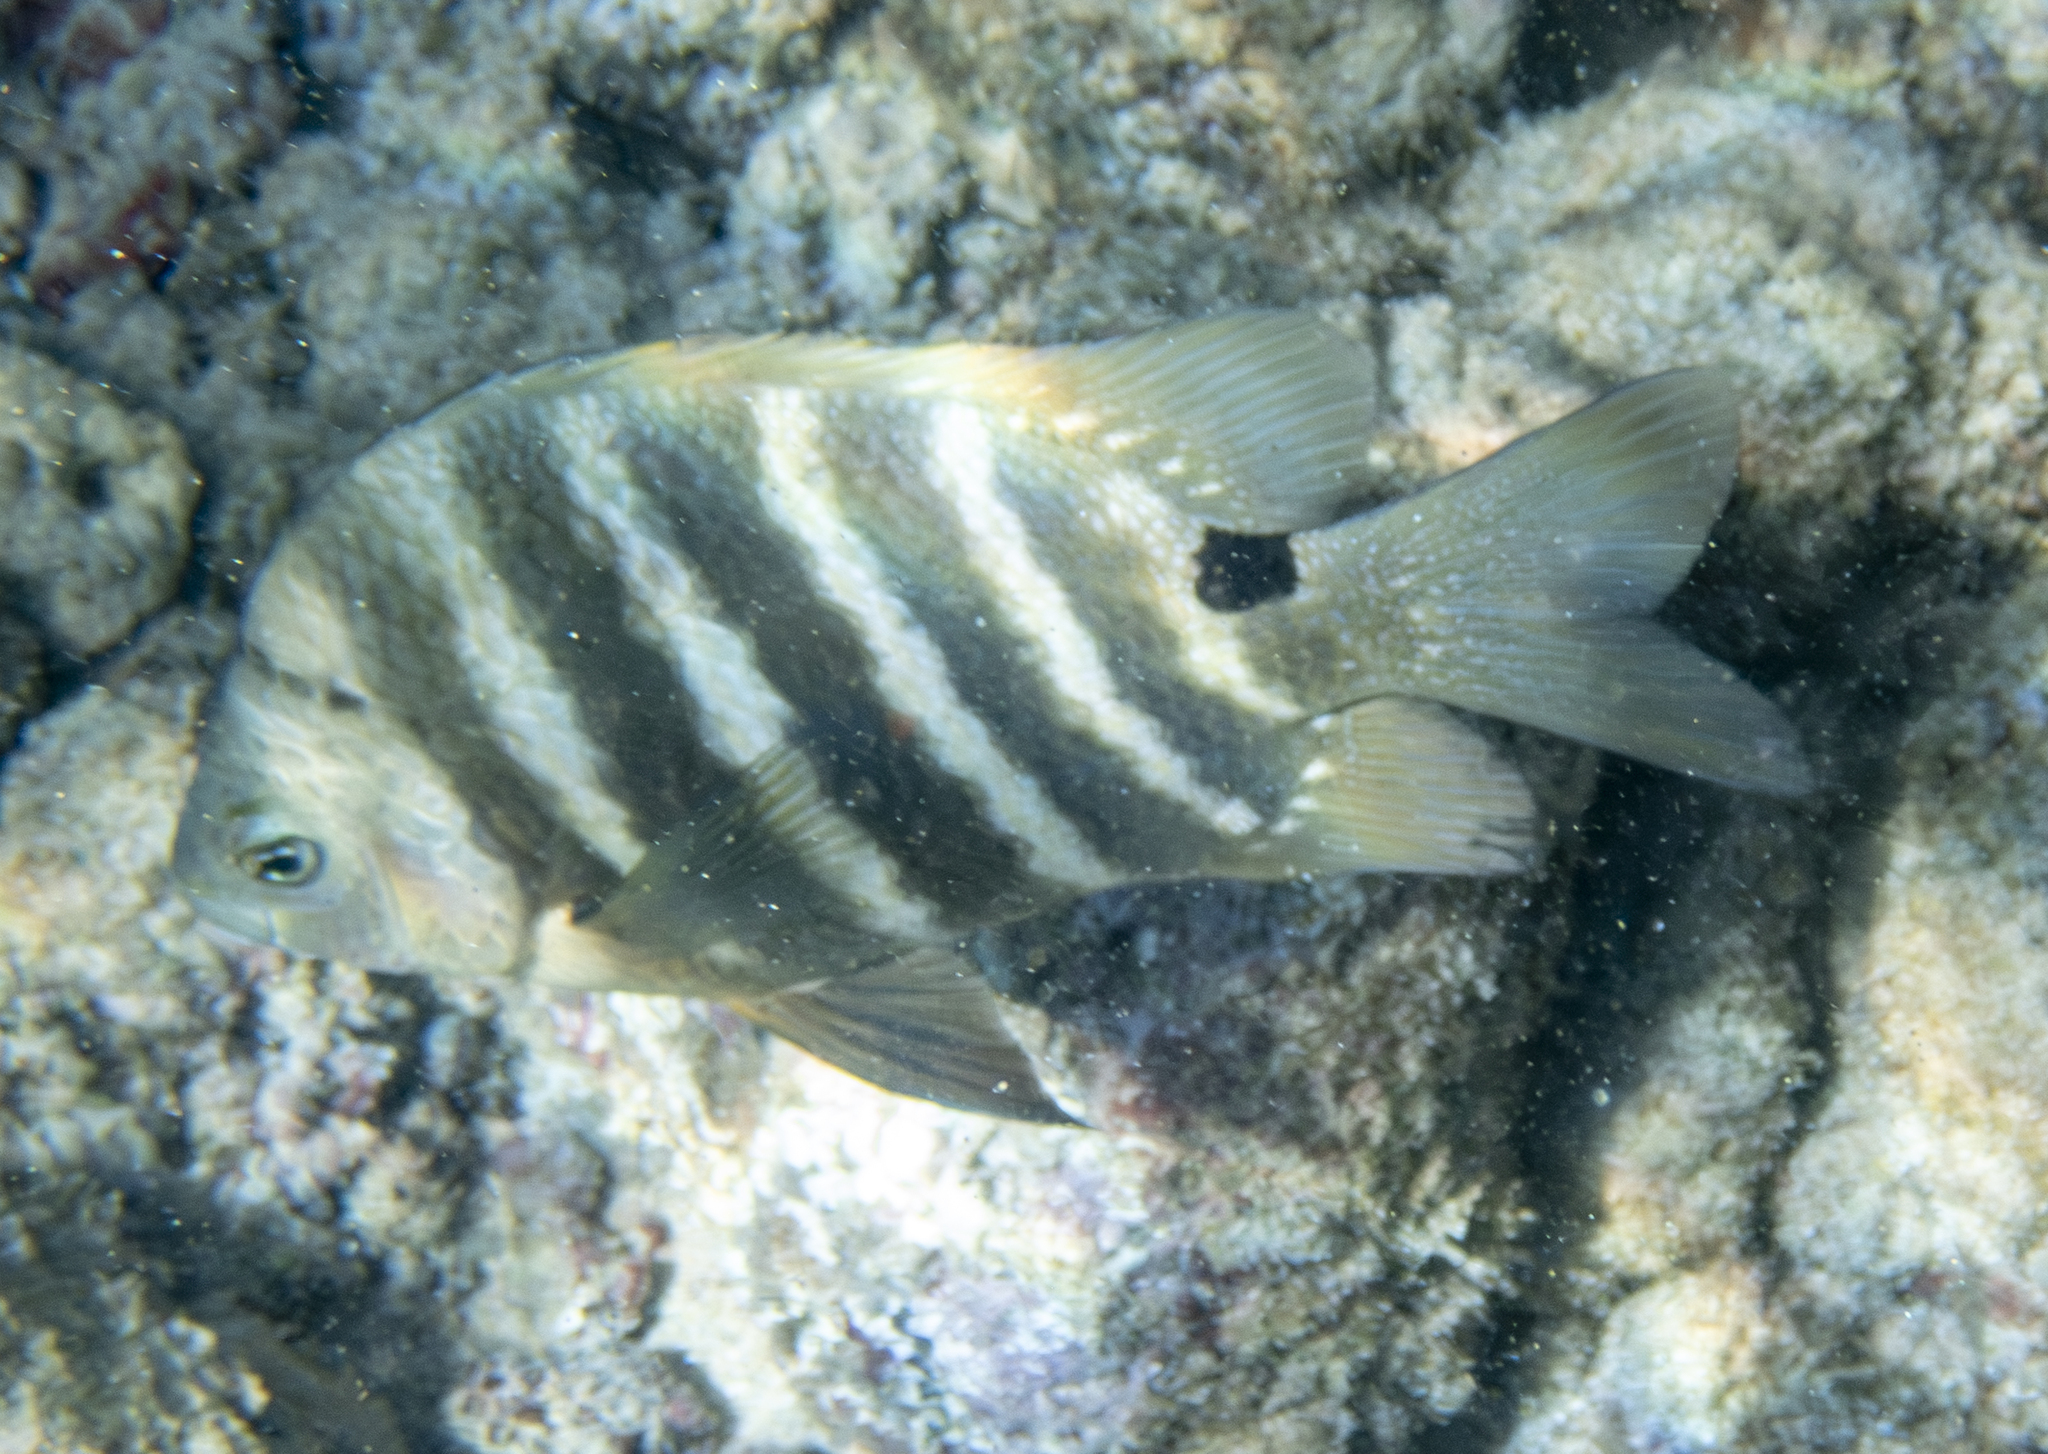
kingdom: Animalia
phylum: Chordata
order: Perciformes
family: Pomacentridae
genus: Abudefduf
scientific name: Abudefduf sordidus
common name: Blackspot sergeant
